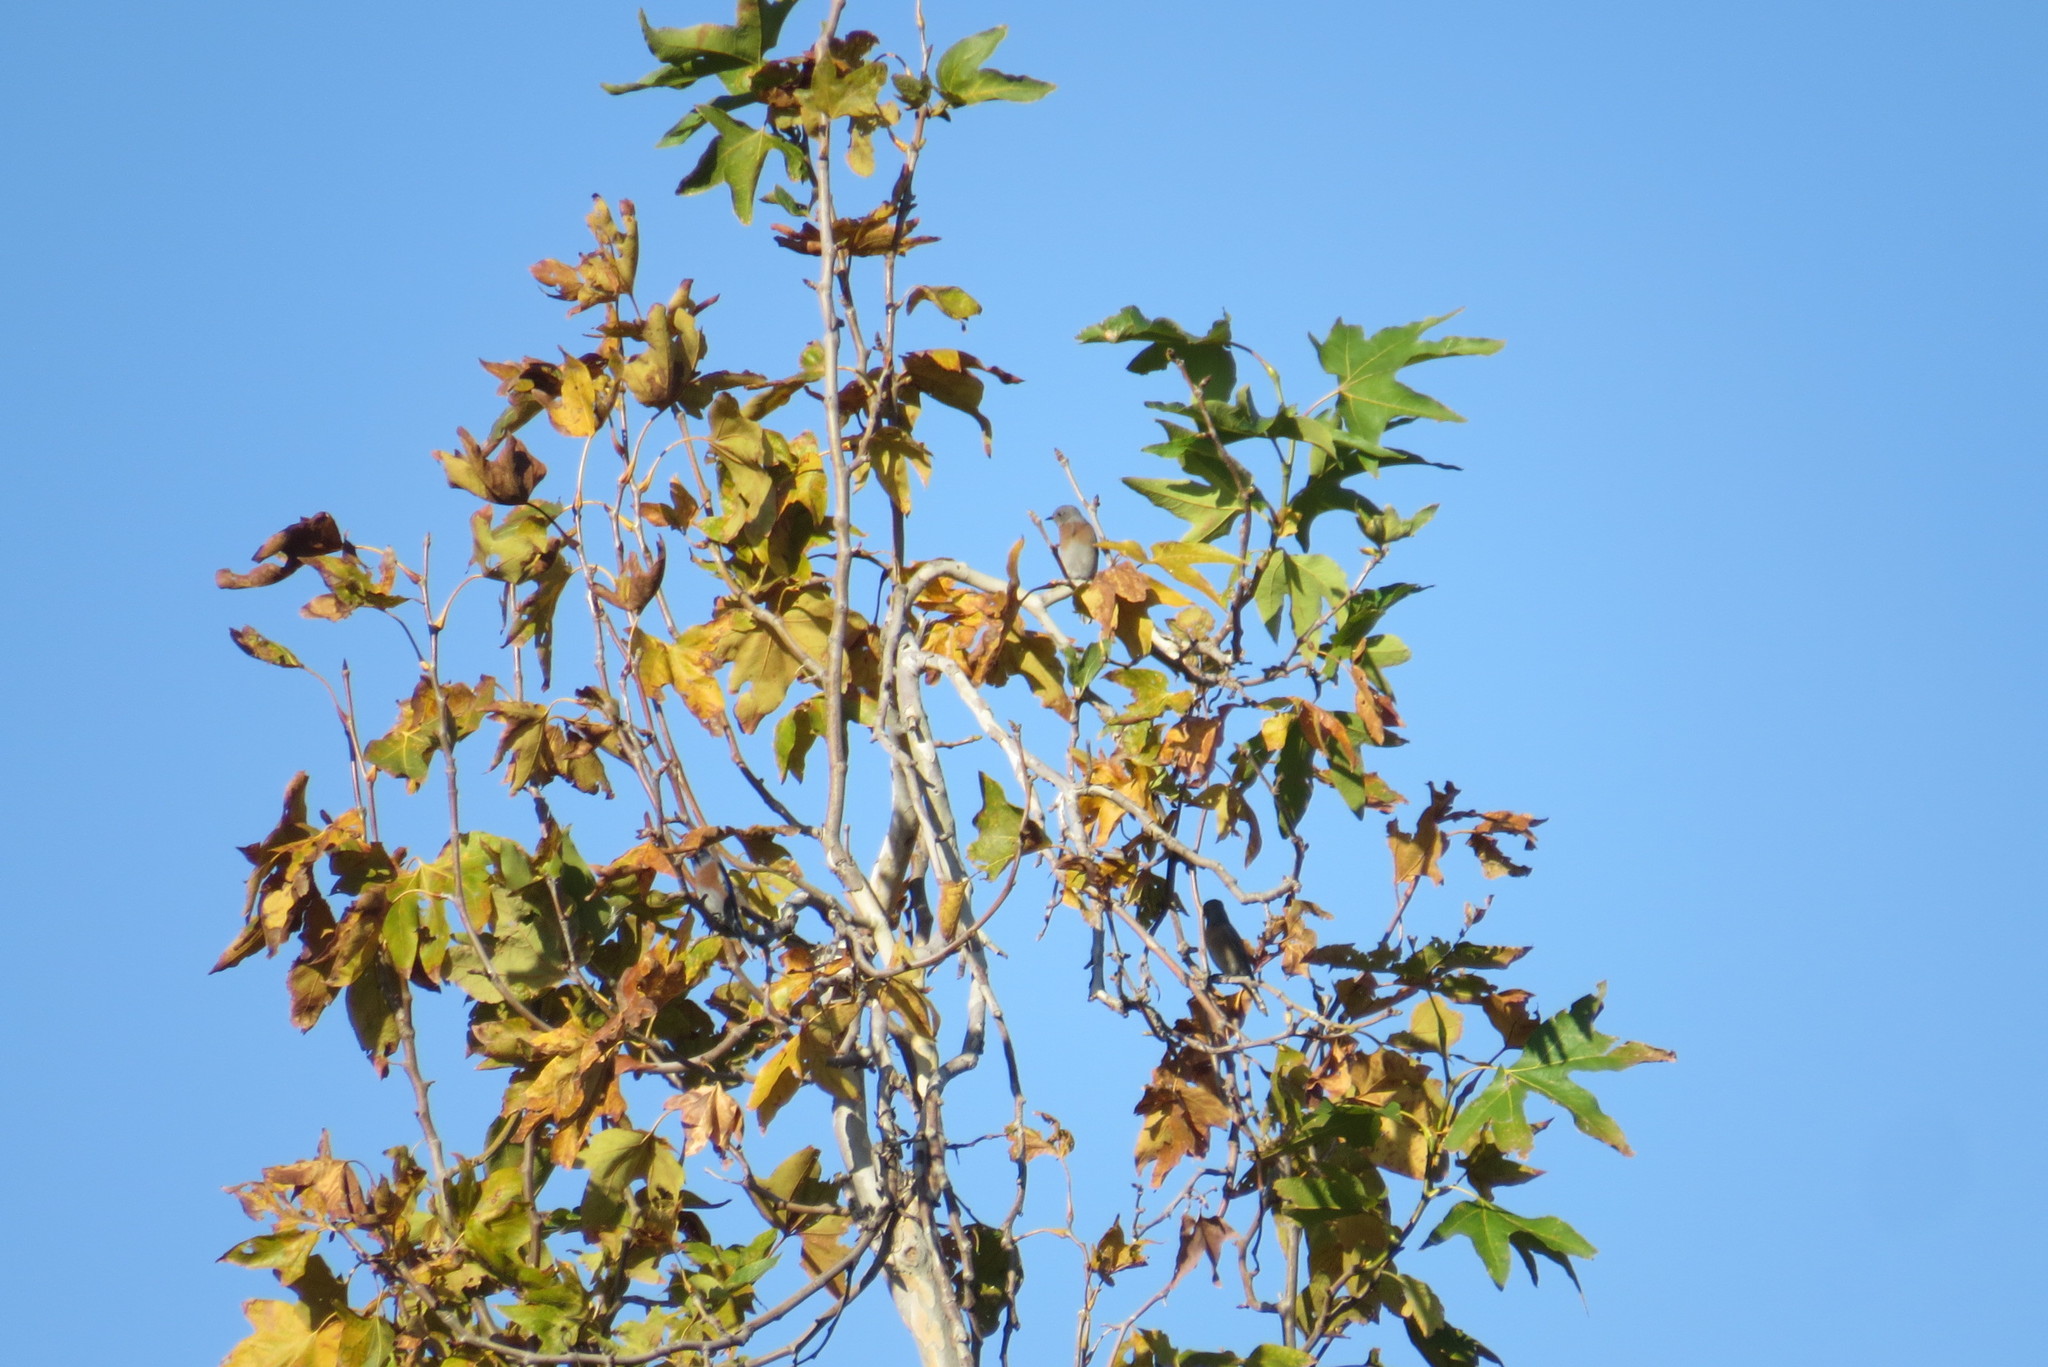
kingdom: Animalia
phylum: Chordata
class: Aves
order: Passeriformes
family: Turdidae
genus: Sialia
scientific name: Sialia mexicana
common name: Western bluebird
